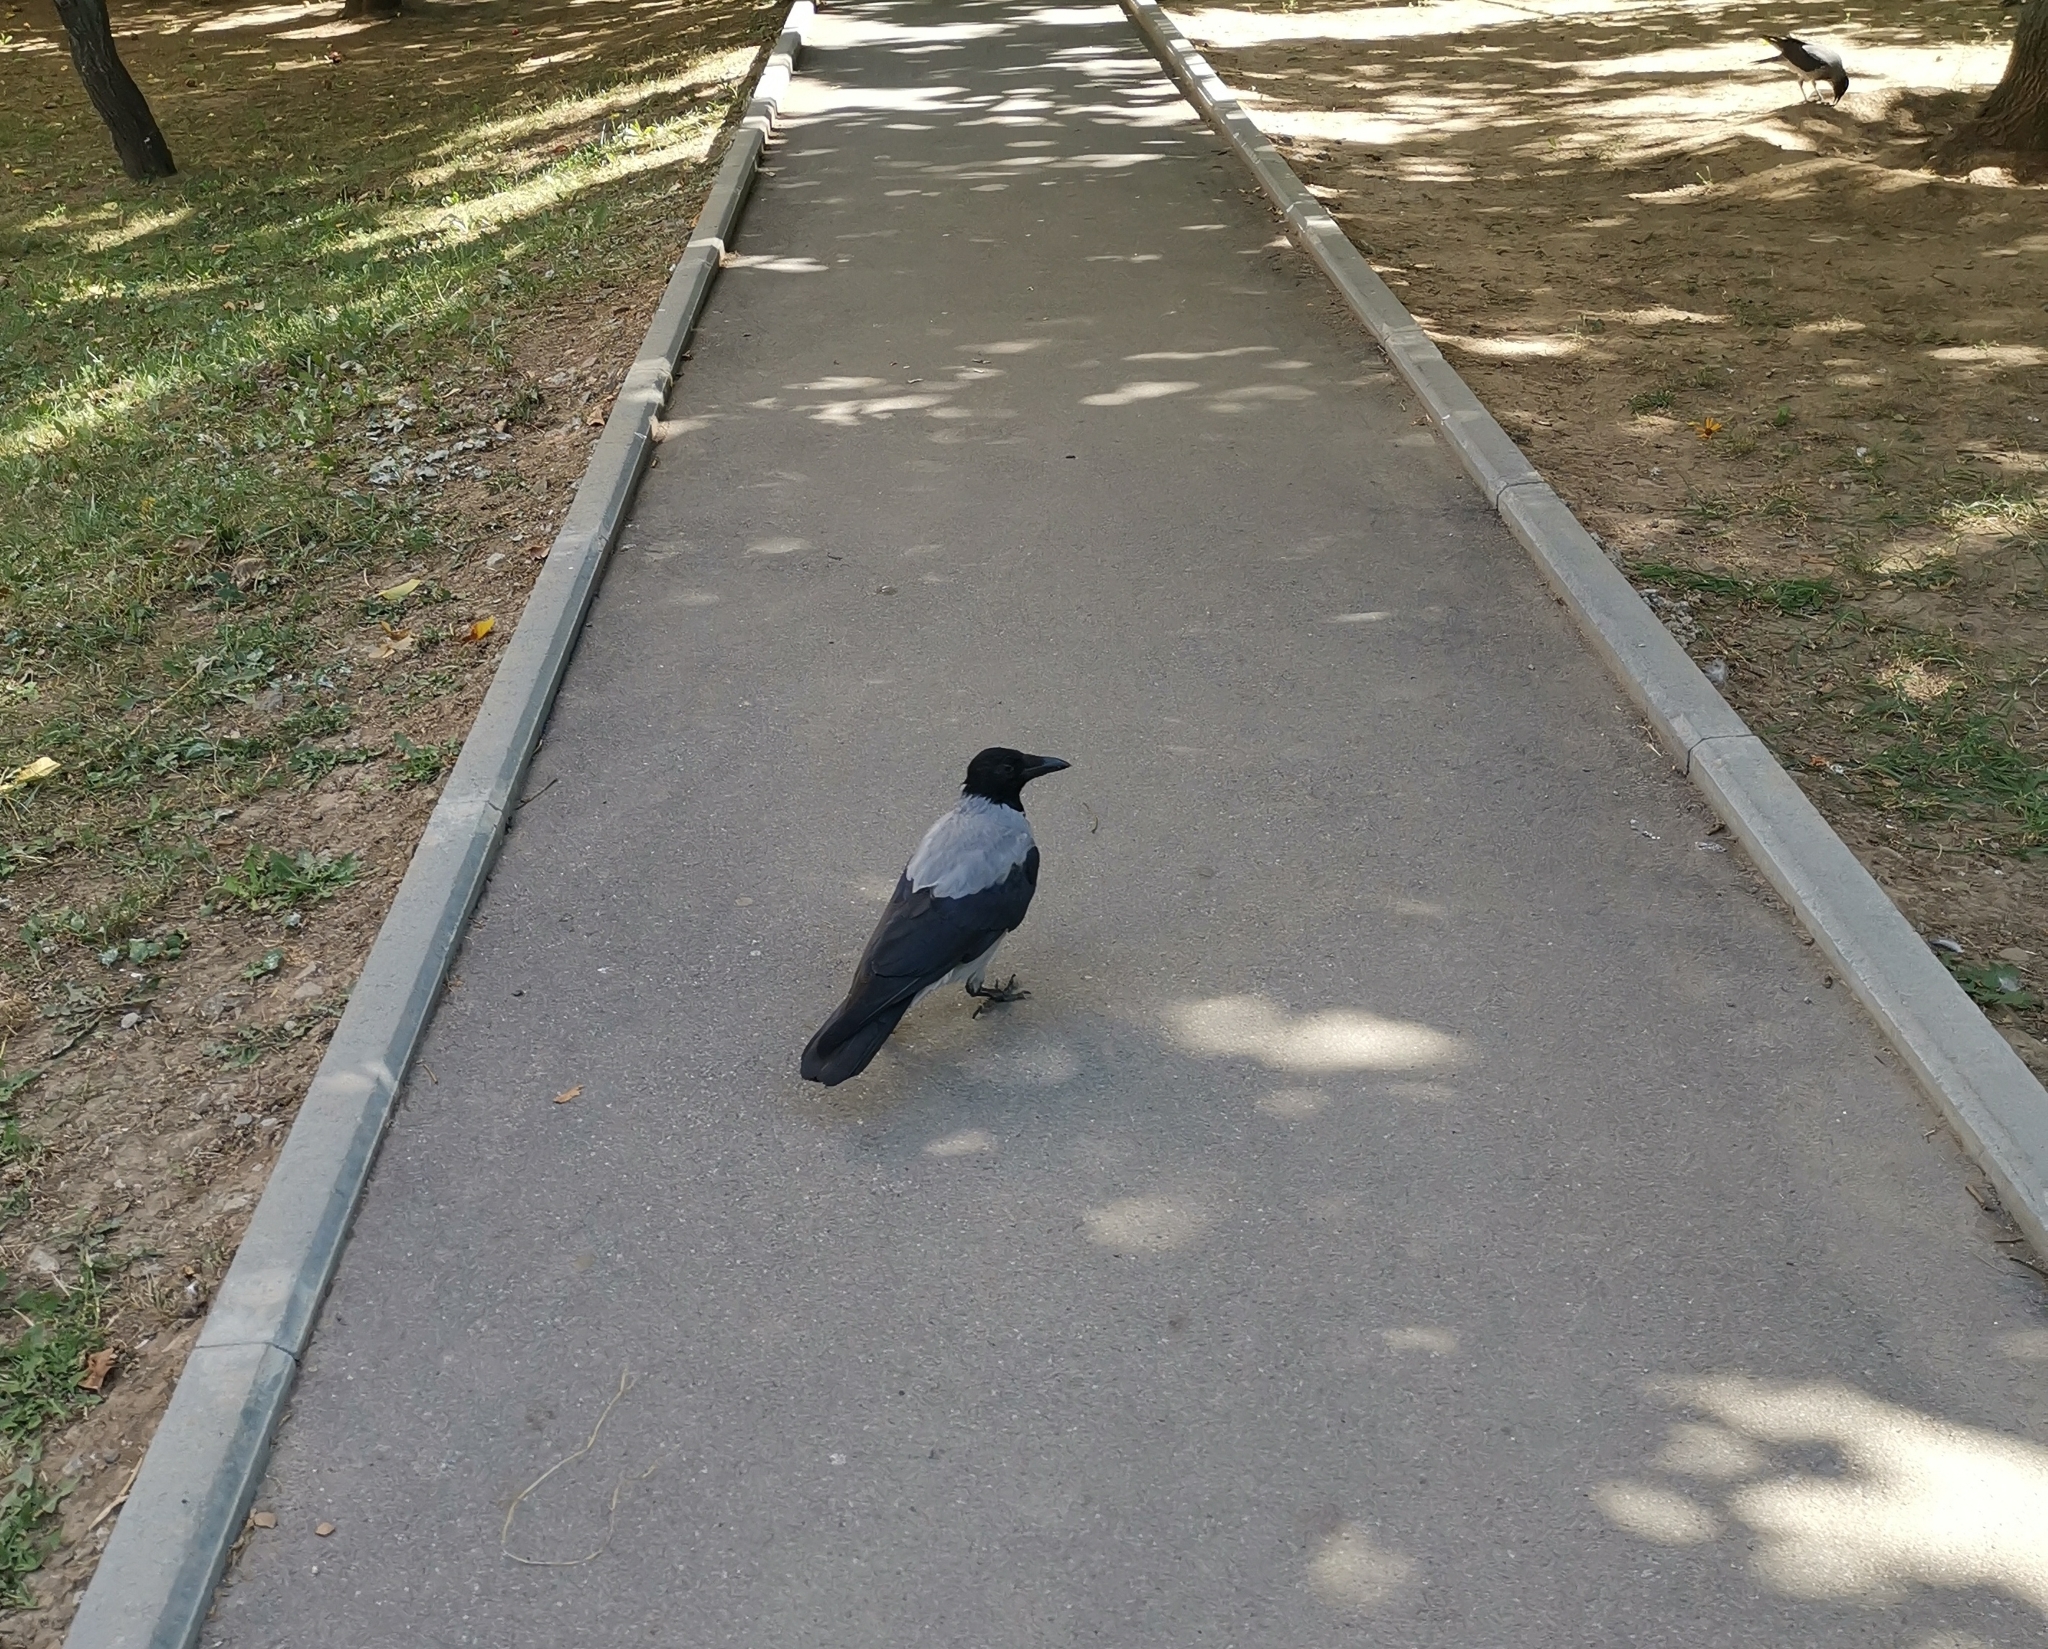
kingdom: Animalia
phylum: Chordata
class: Aves
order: Passeriformes
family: Corvidae
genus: Corvus
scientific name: Corvus cornix
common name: Hooded crow
